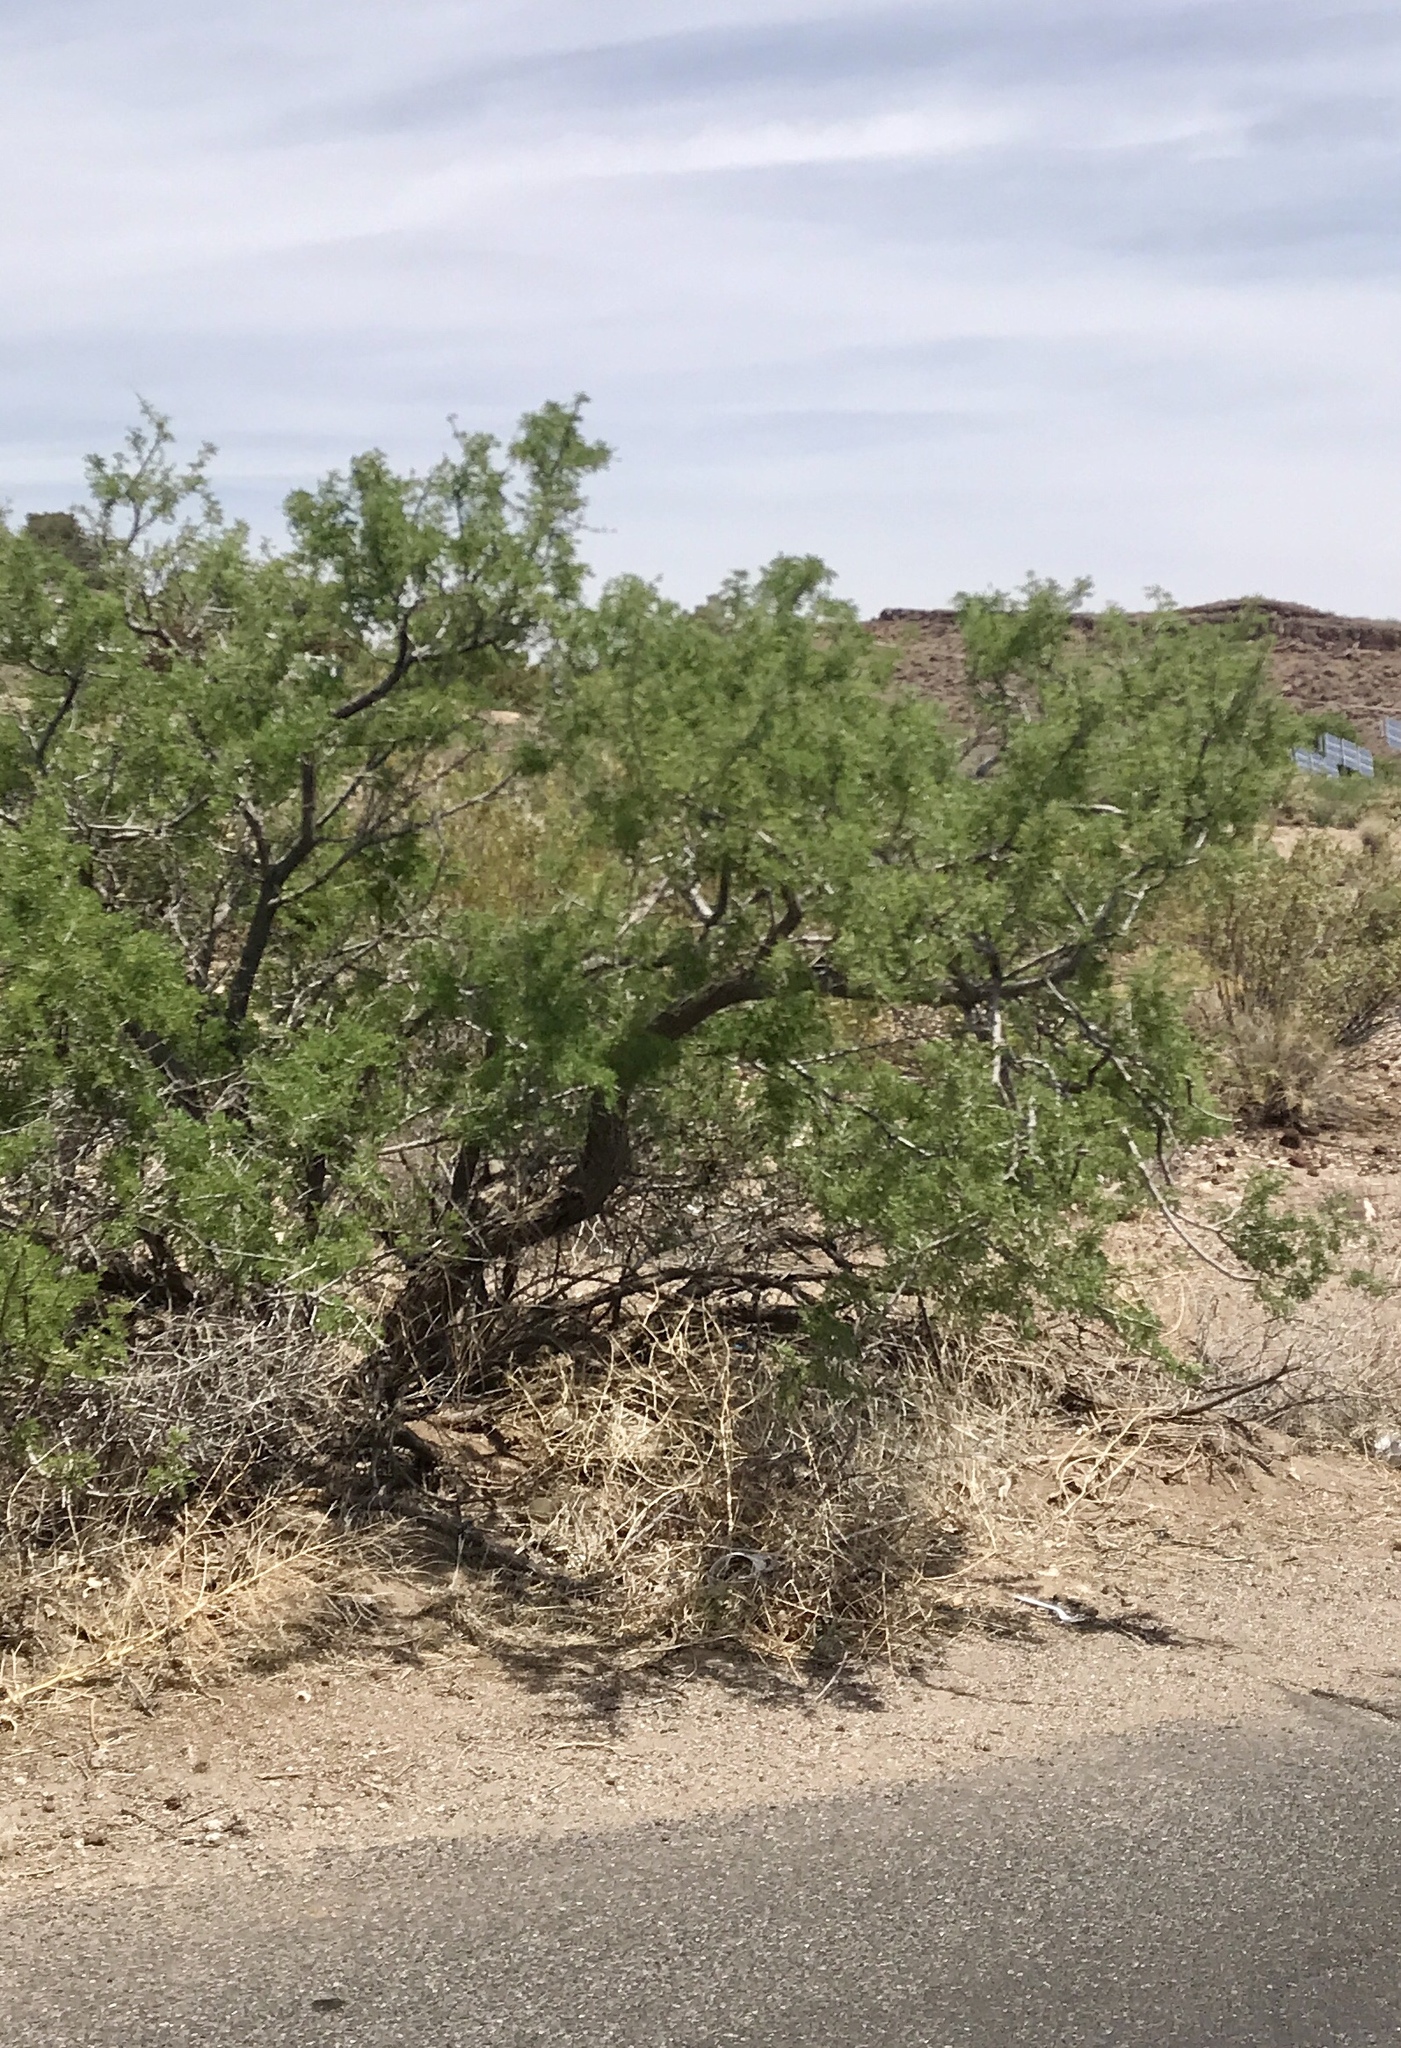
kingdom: Plantae
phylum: Tracheophyta
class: Magnoliopsida
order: Fabales
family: Fabaceae
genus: Senegalia
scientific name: Senegalia greggii
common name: Texas-mimosa
